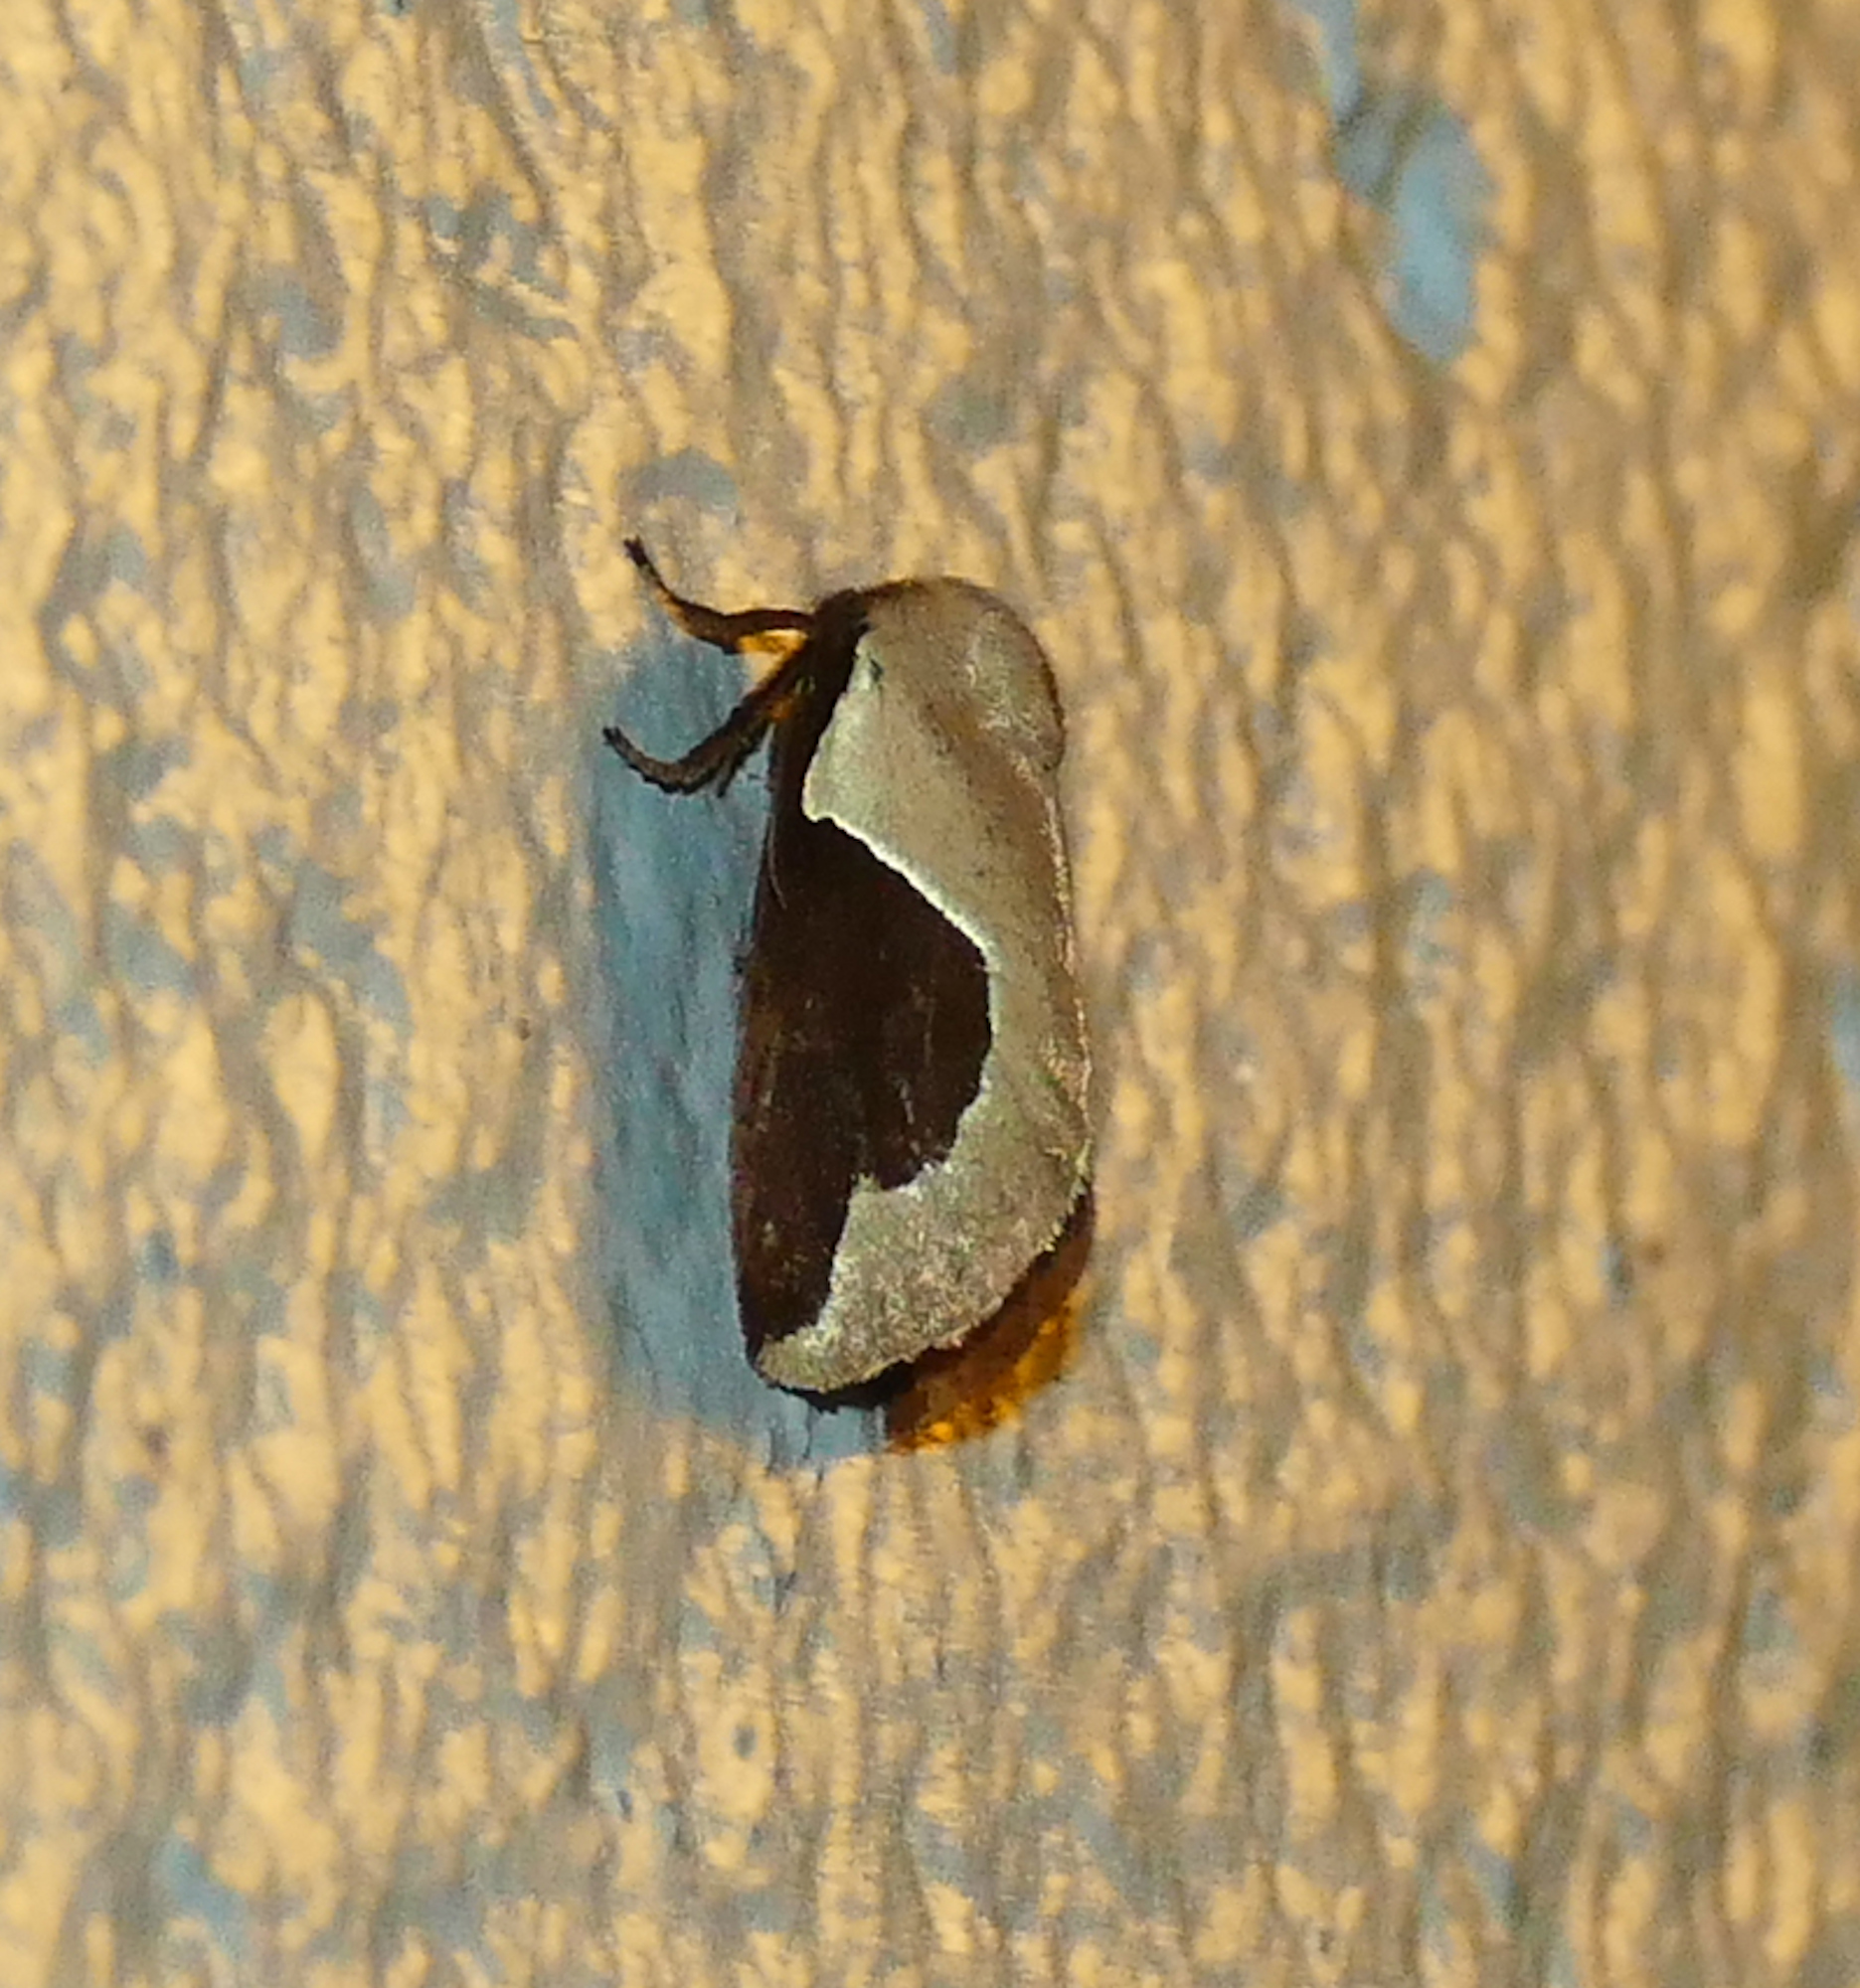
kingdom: Animalia
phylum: Arthropoda
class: Insecta
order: Lepidoptera
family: Limacodidae
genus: Prolimacodes
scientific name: Prolimacodes badia
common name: Skiff moth
